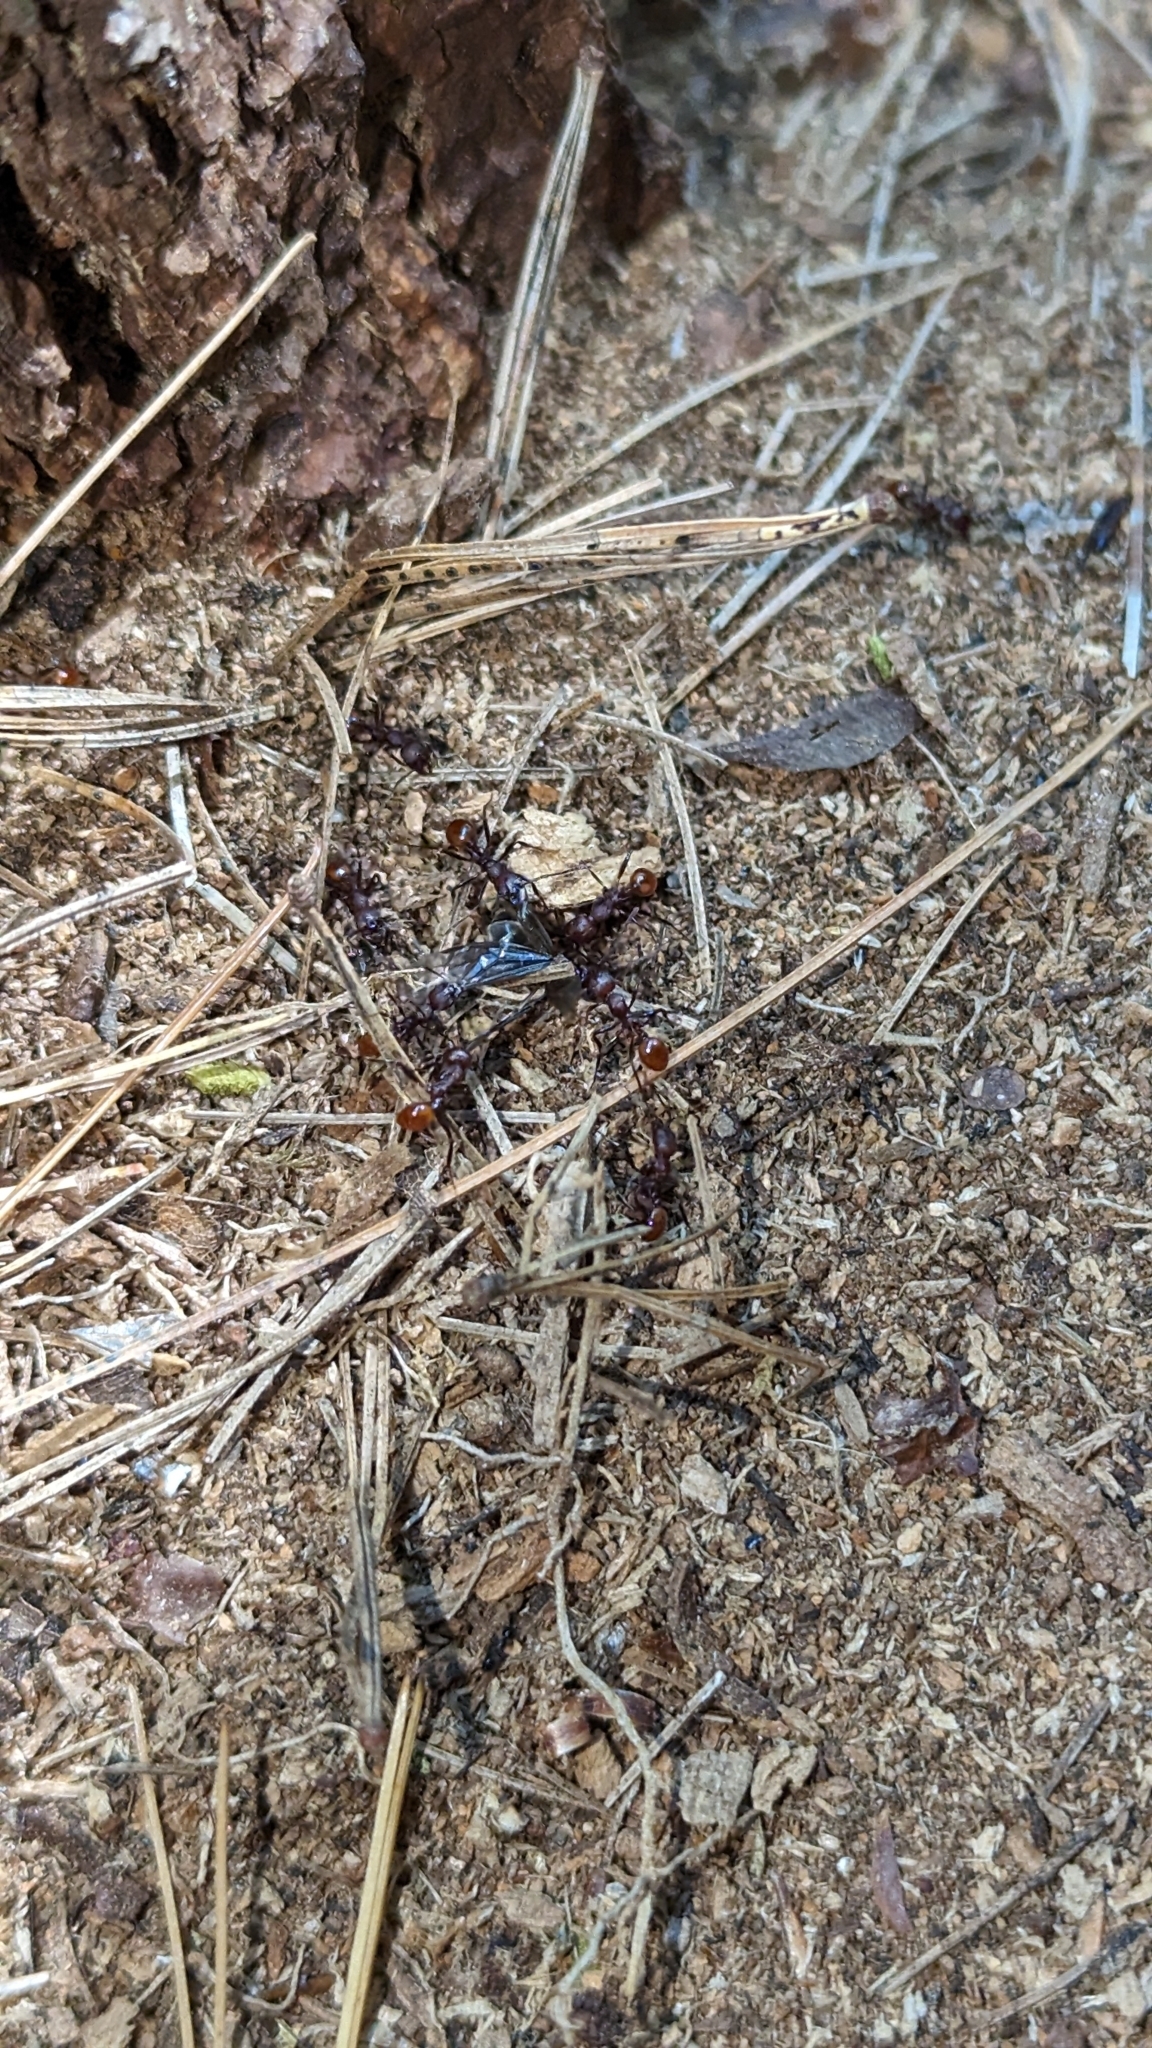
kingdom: Animalia
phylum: Arthropoda
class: Insecta
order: Hymenoptera
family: Formicidae
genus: Aphaenogaster
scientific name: Aphaenogaster tennesseensis
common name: Tennessee thread-waisted ant
